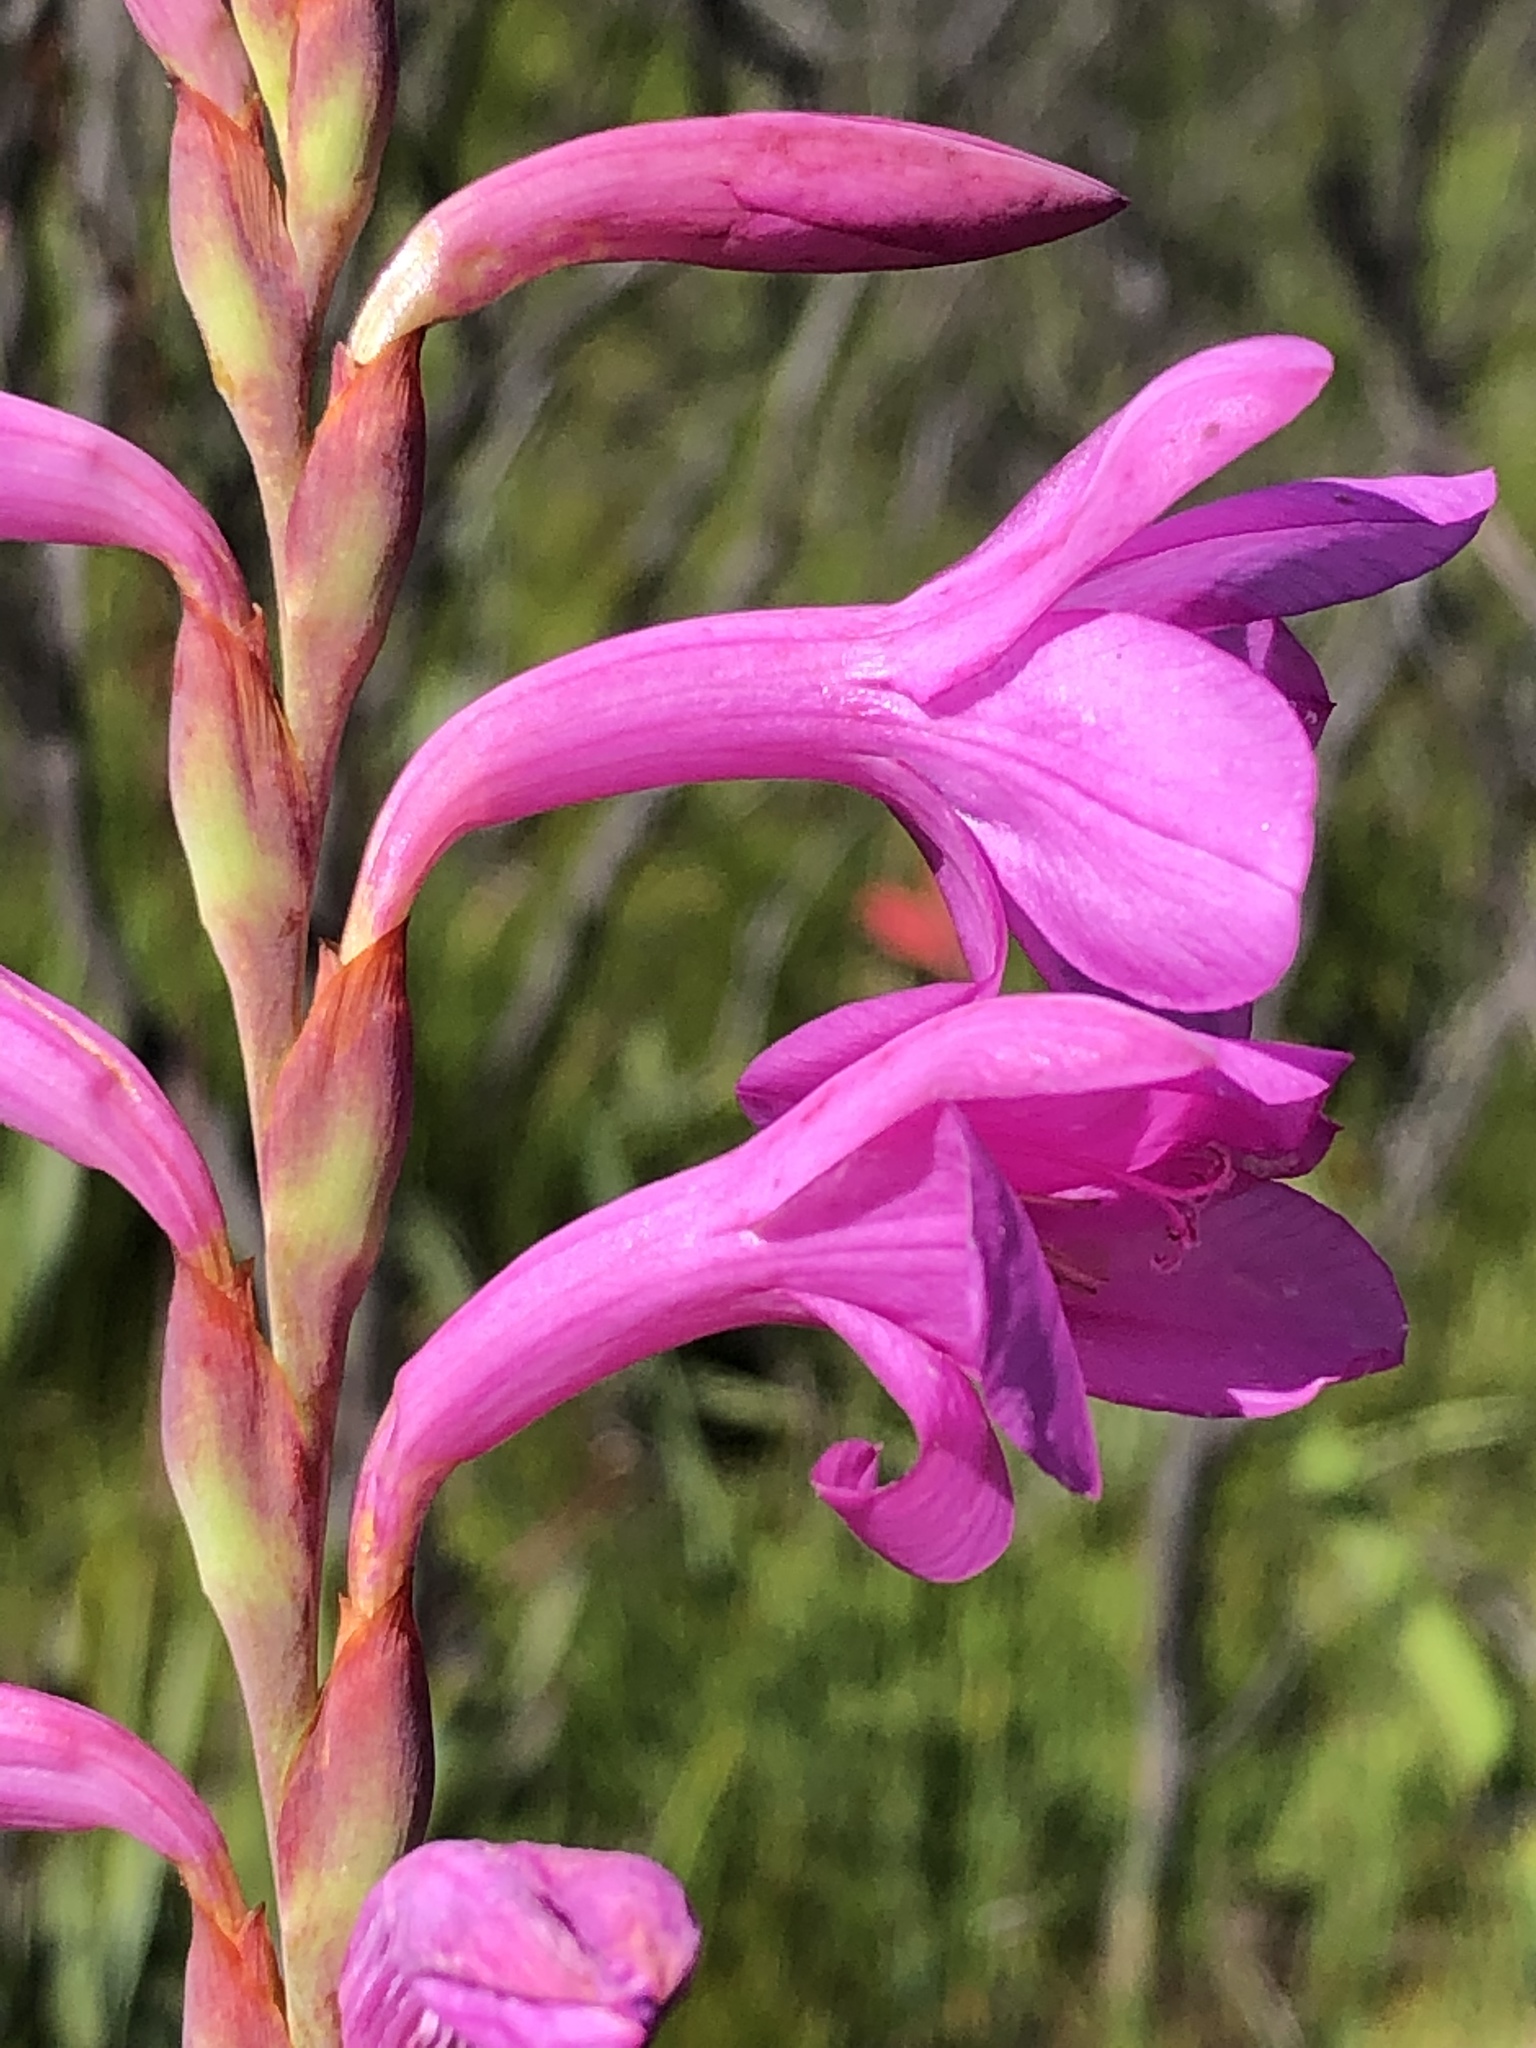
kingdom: Plantae
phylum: Tracheophyta
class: Liliopsida
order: Asparagales
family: Iridaceae
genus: Watsonia
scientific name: Watsonia knysnana
